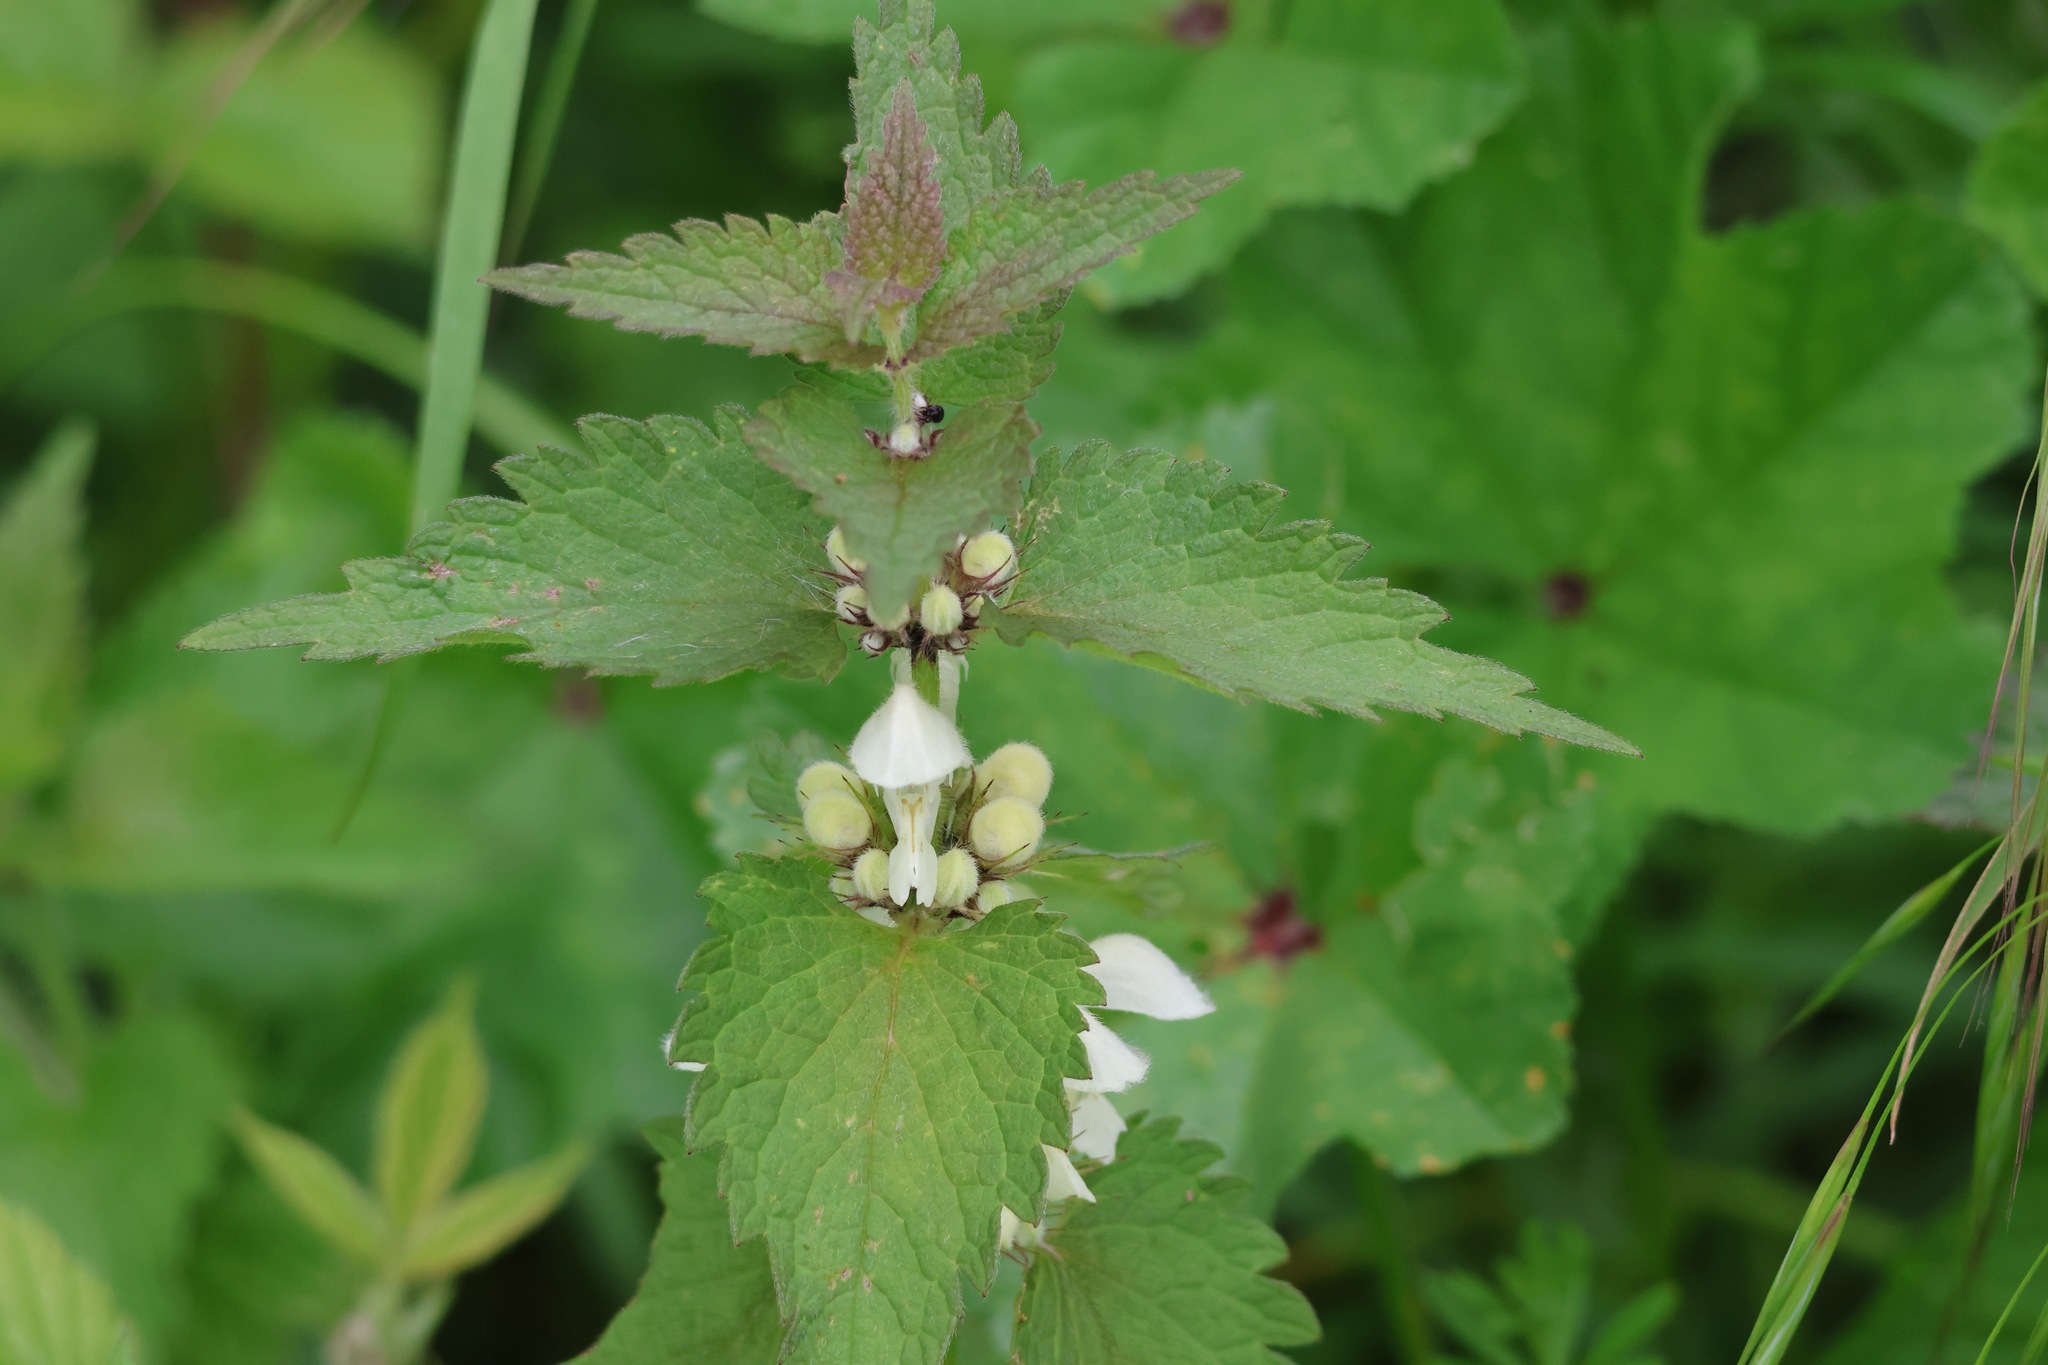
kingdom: Plantae
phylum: Tracheophyta
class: Magnoliopsida
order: Lamiales
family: Lamiaceae
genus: Lamium
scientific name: Lamium album
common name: White dead-nettle
